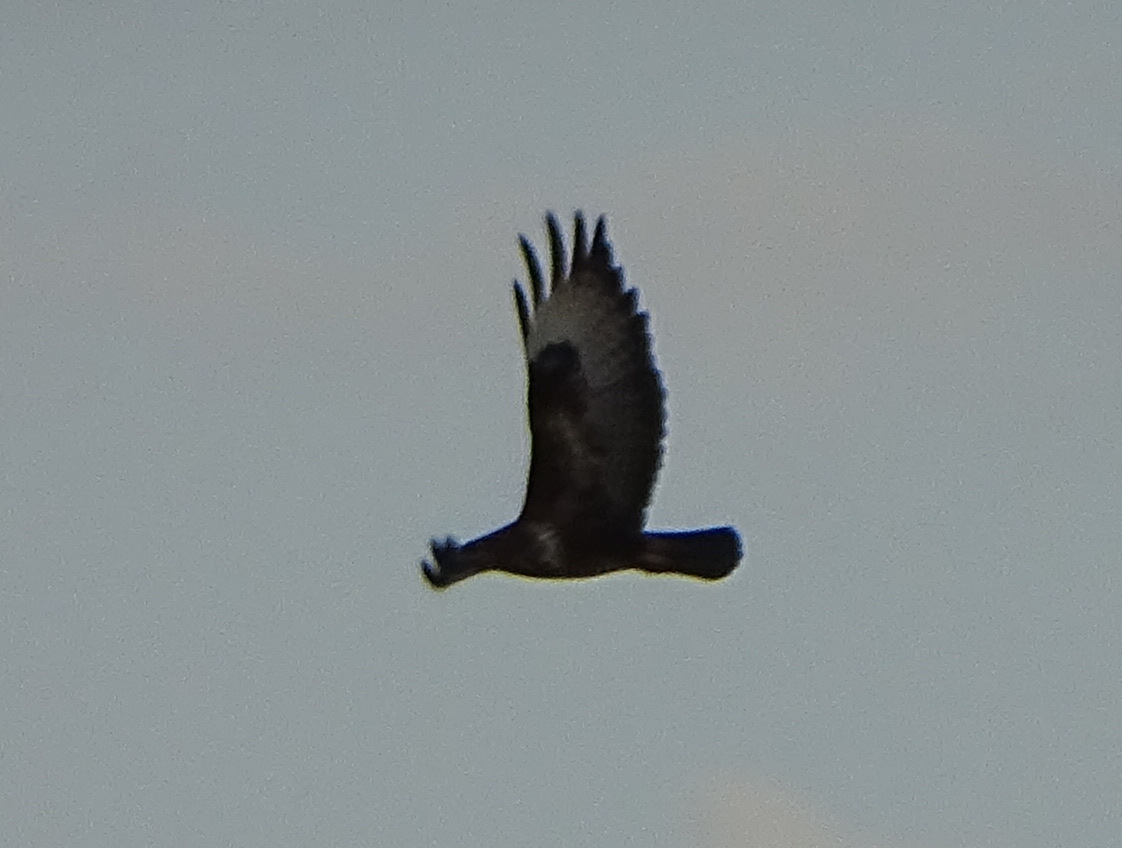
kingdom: Animalia
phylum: Chordata
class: Aves
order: Accipitriformes
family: Accipitridae
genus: Buteo
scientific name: Buteo buteo
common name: Common buzzard
